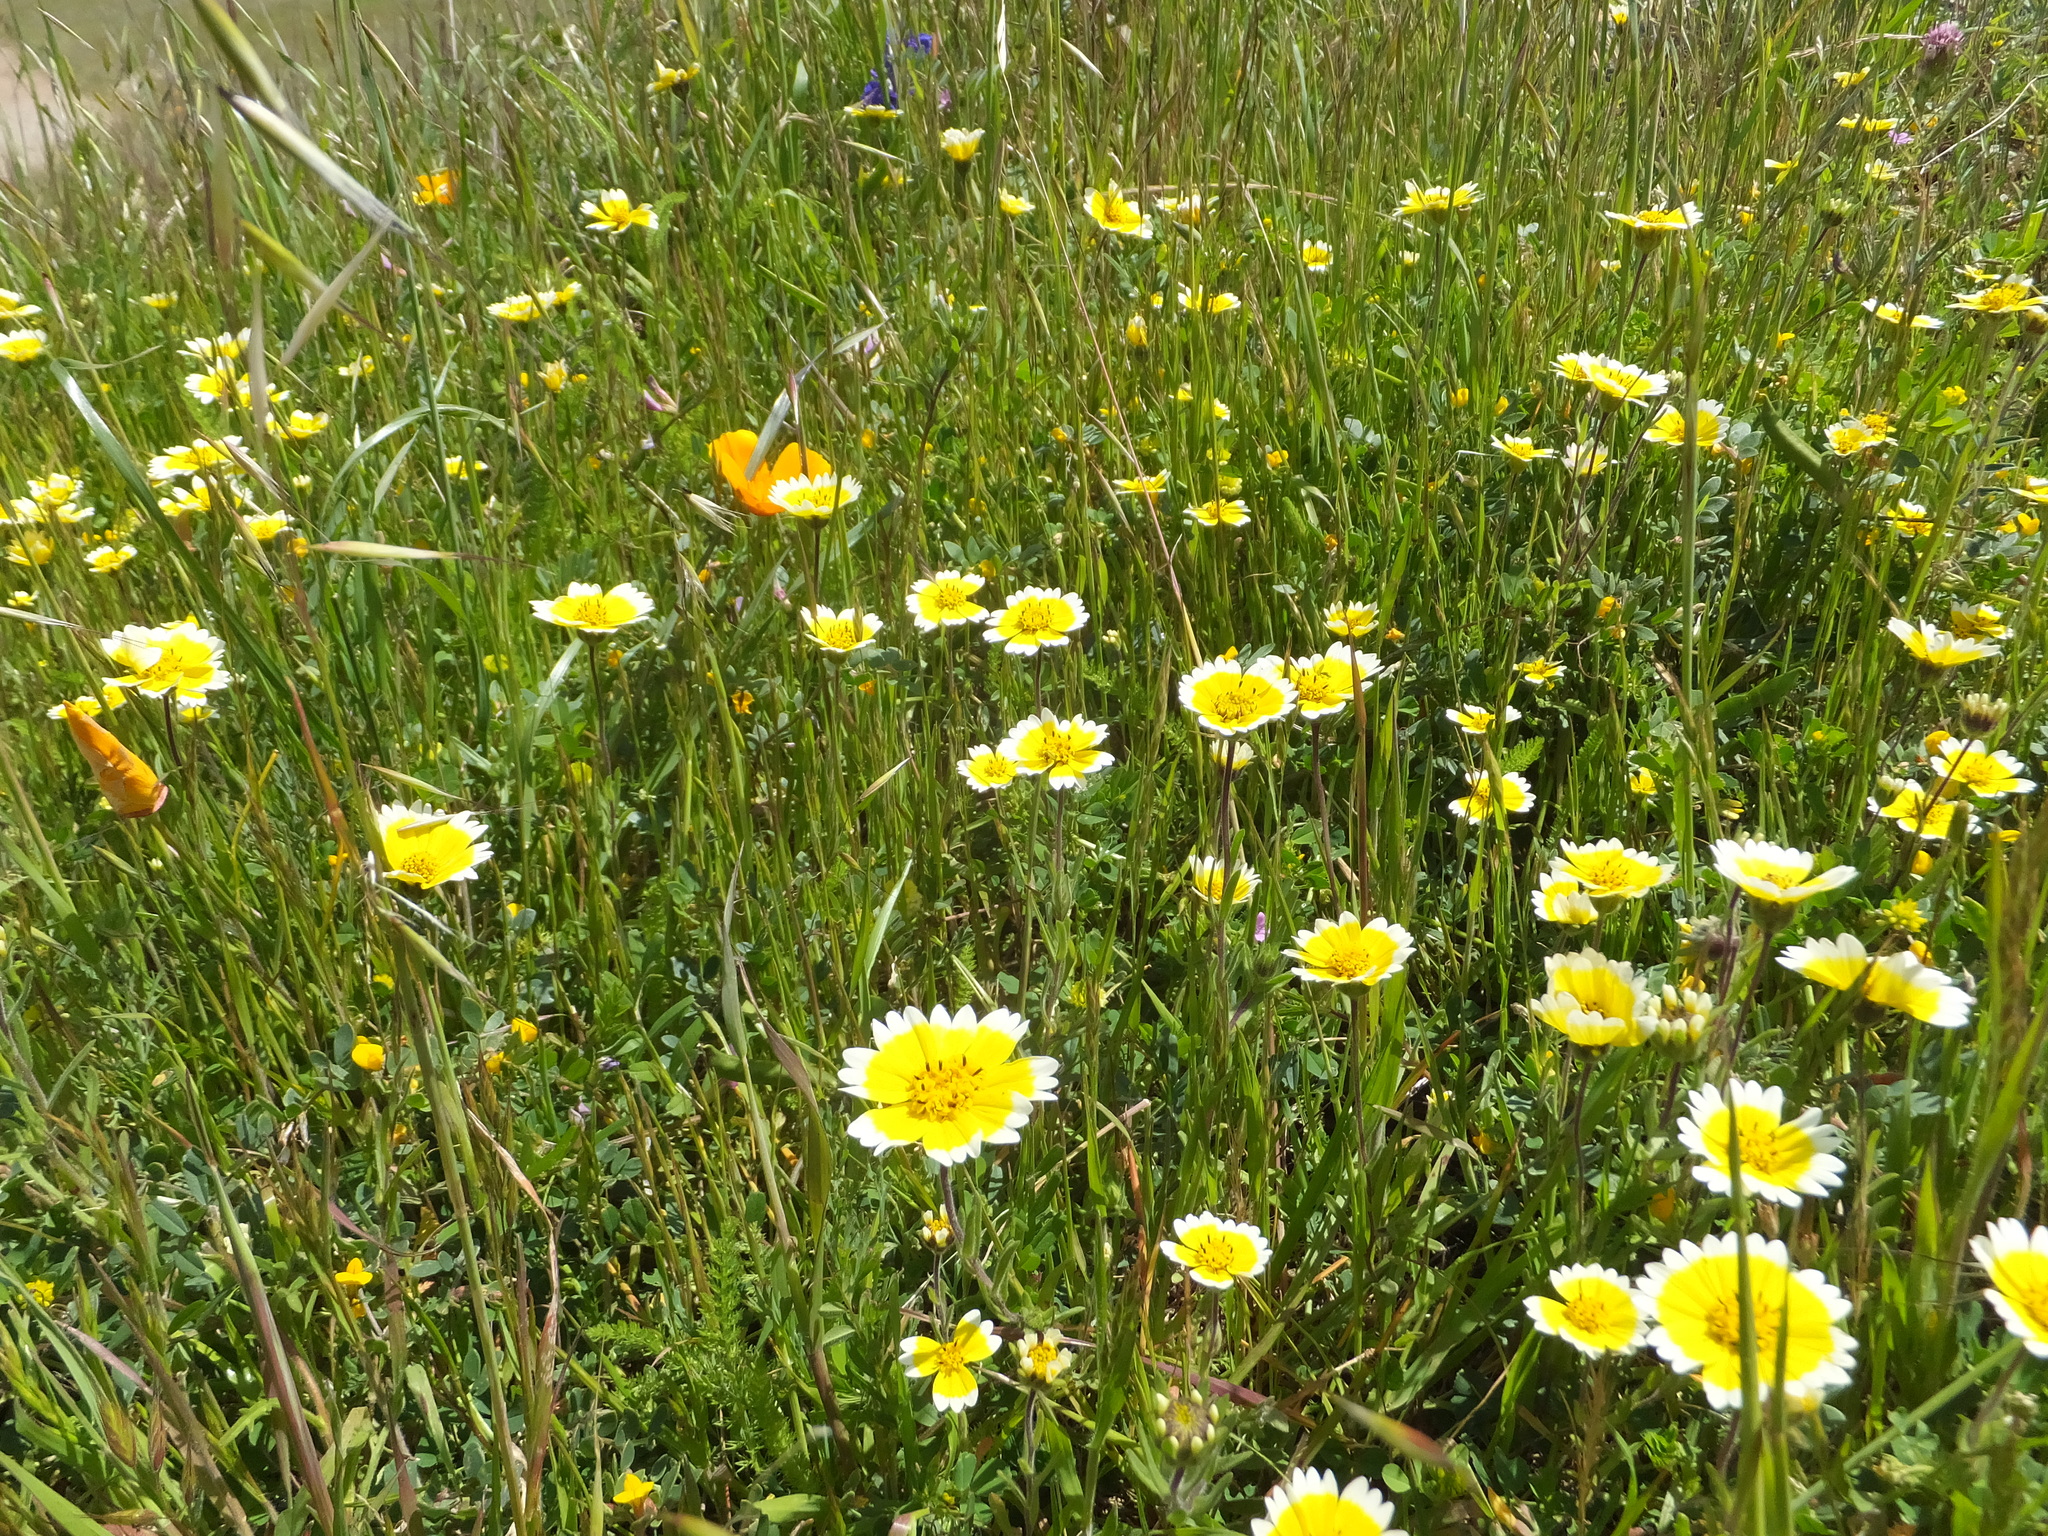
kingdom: Plantae
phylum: Tracheophyta
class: Magnoliopsida
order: Asterales
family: Asteraceae
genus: Layia
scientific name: Layia platyglossa
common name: Tidy-tips
